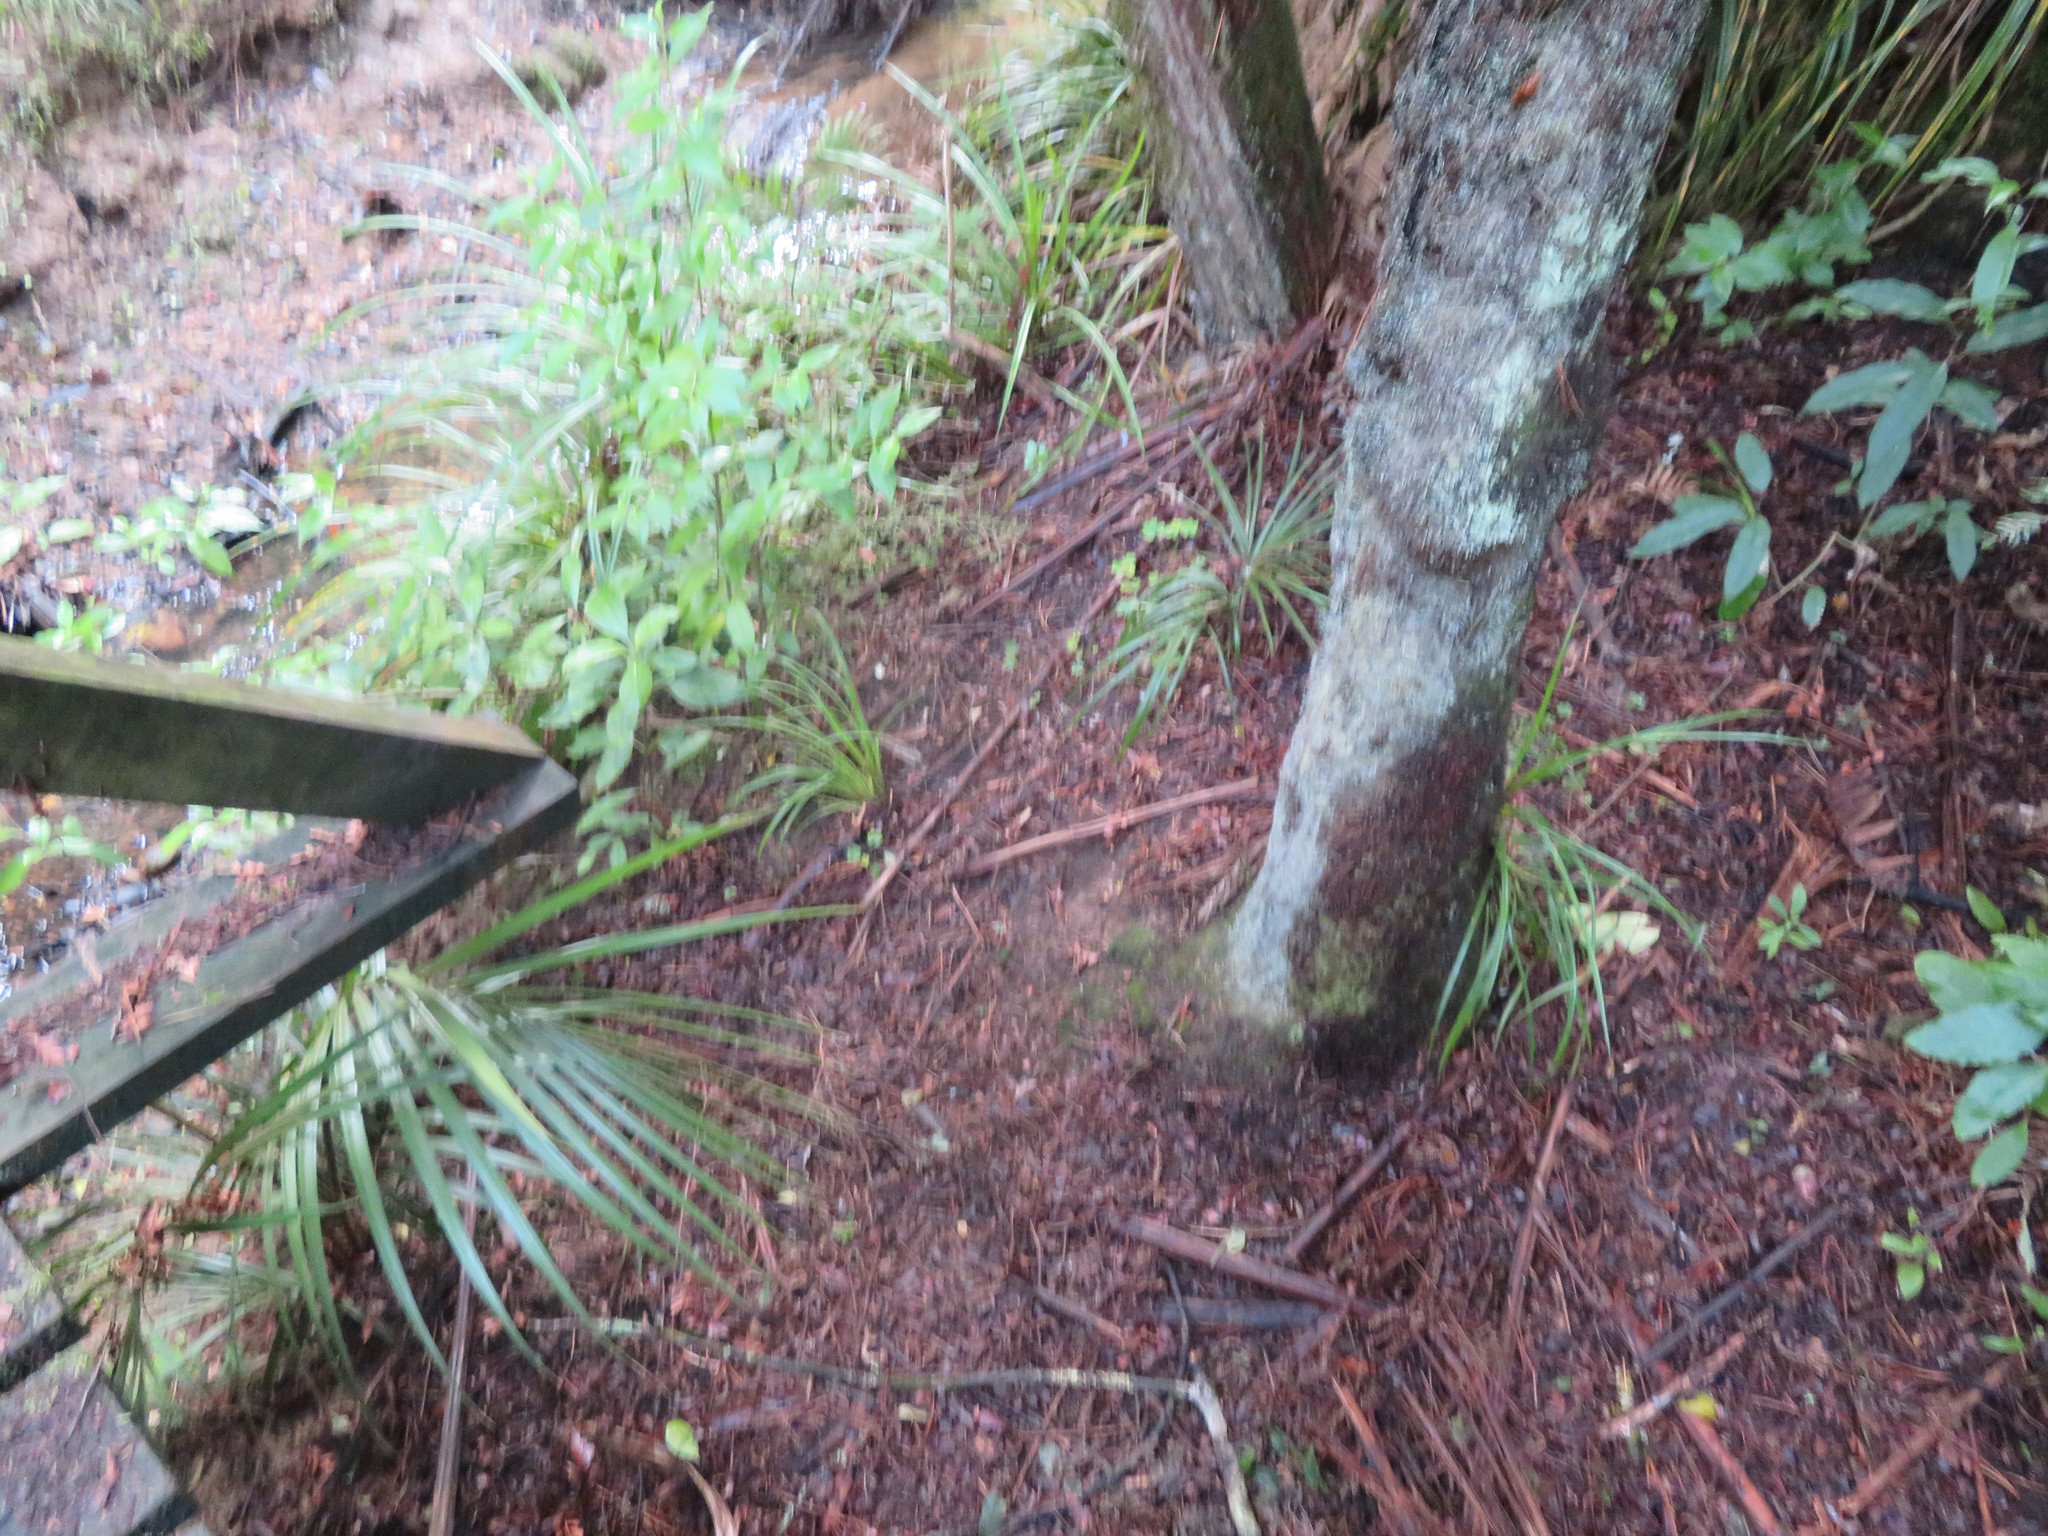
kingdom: Plantae
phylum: Tracheophyta
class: Liliopsida
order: Arecales
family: Arecaceae
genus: Rhopalostylis
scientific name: Rhopalostylis sapida
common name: Feather-duster palm
